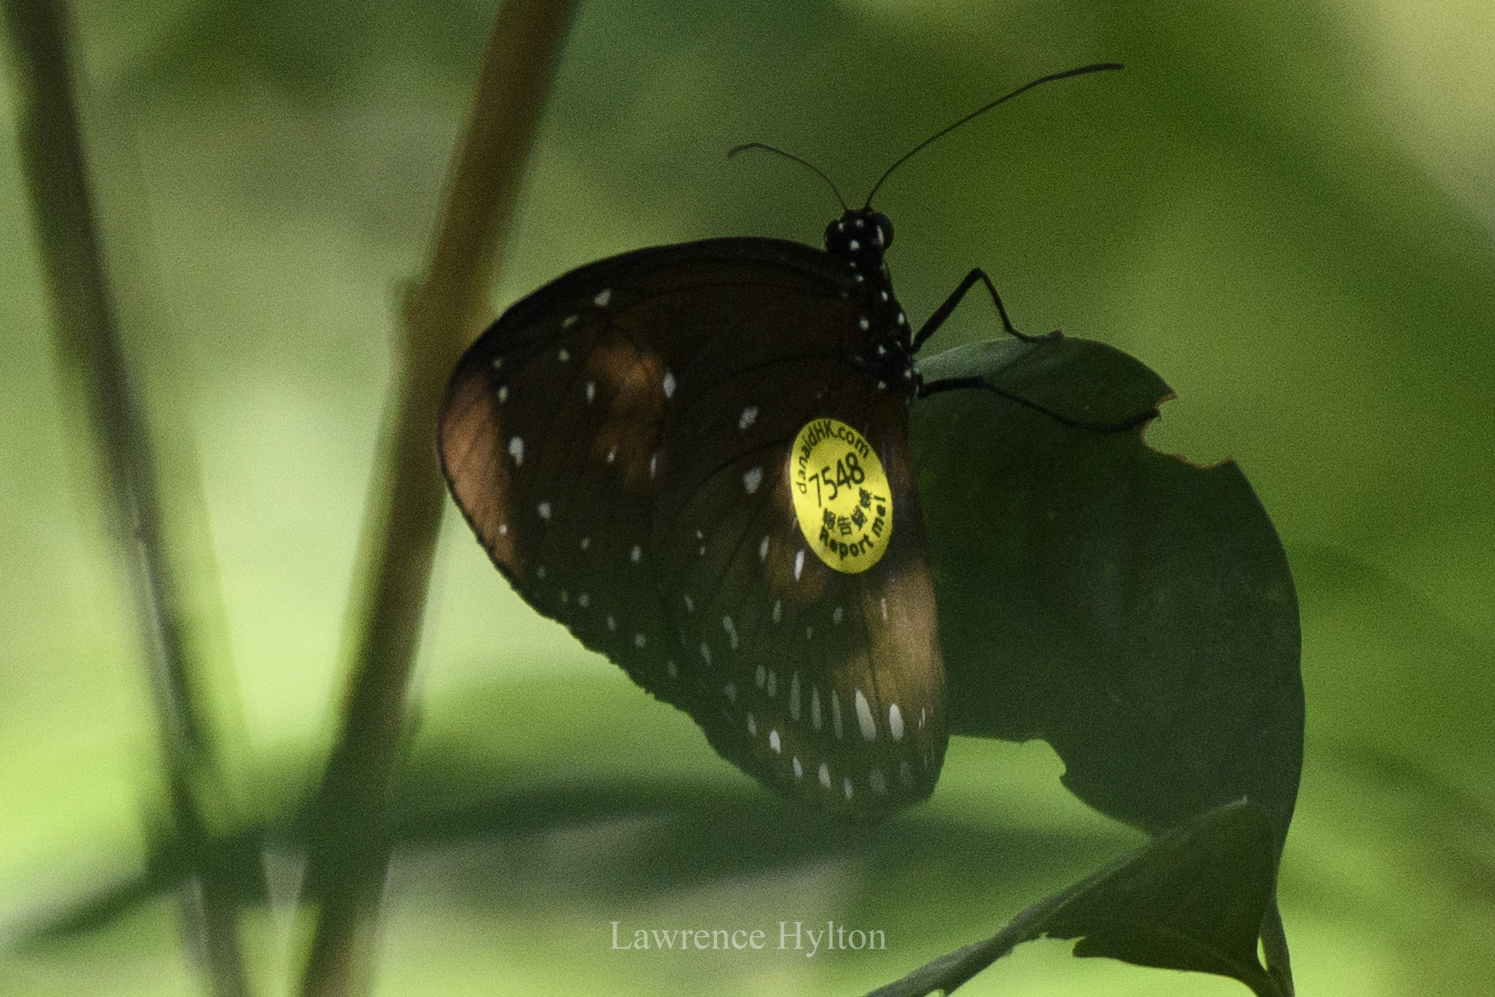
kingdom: Animalia
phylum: Arthropoda
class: Insecta
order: Lepidoptera
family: Nymphalidae
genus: Euploea
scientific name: Euploea midamus
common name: Blue-spotted crow butterfly
